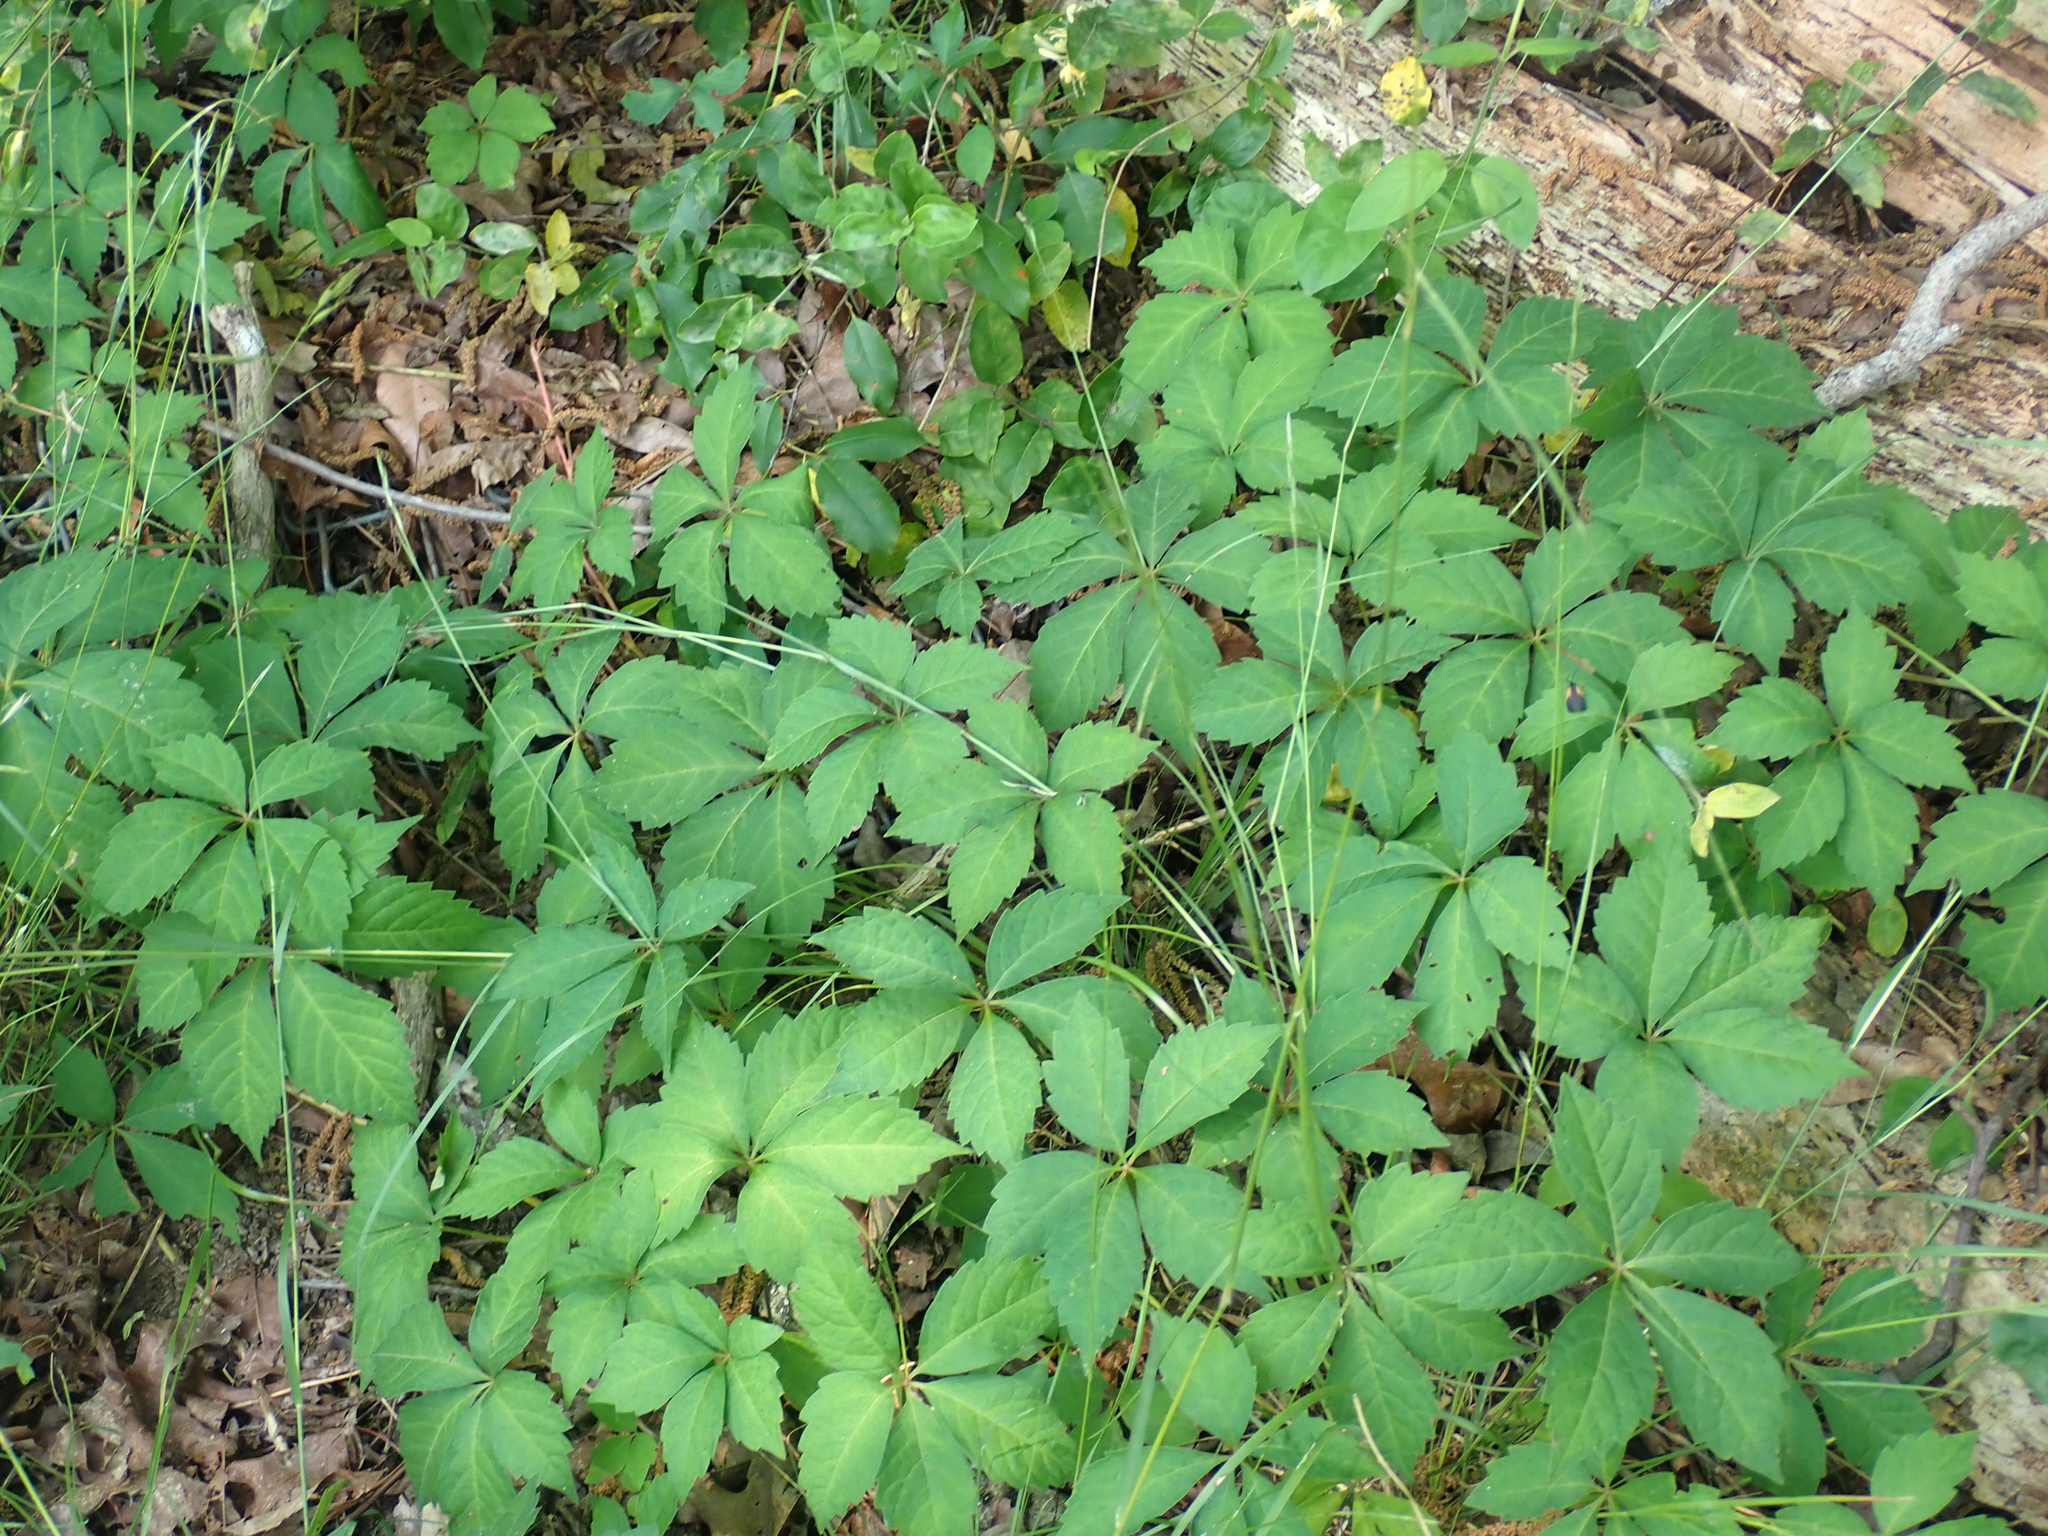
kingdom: Plantae
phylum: Tracheophyta
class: Magnoliopsida
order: Vitales
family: Vitaceae
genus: Parthenocissus
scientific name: Parthenocissus quinquefolia
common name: Virginia-creeper
